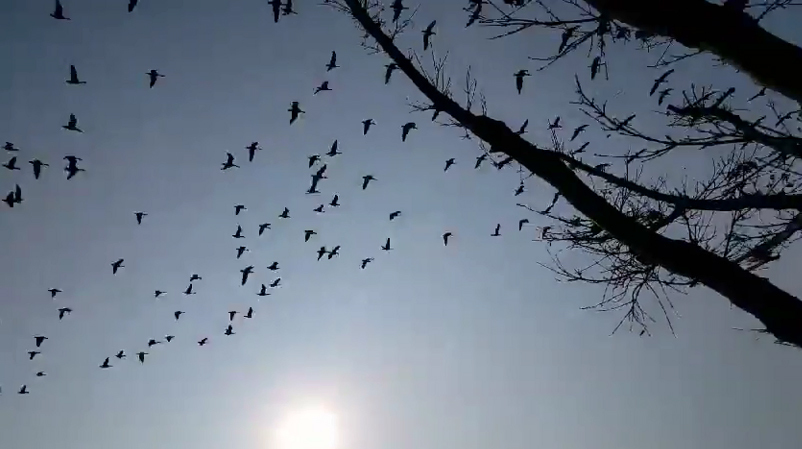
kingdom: Animalia
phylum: Chordata
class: Aves
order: Anseriformes
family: Anatidae
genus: Anser
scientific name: Anser albifrons
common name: Greater white-fronted goose
